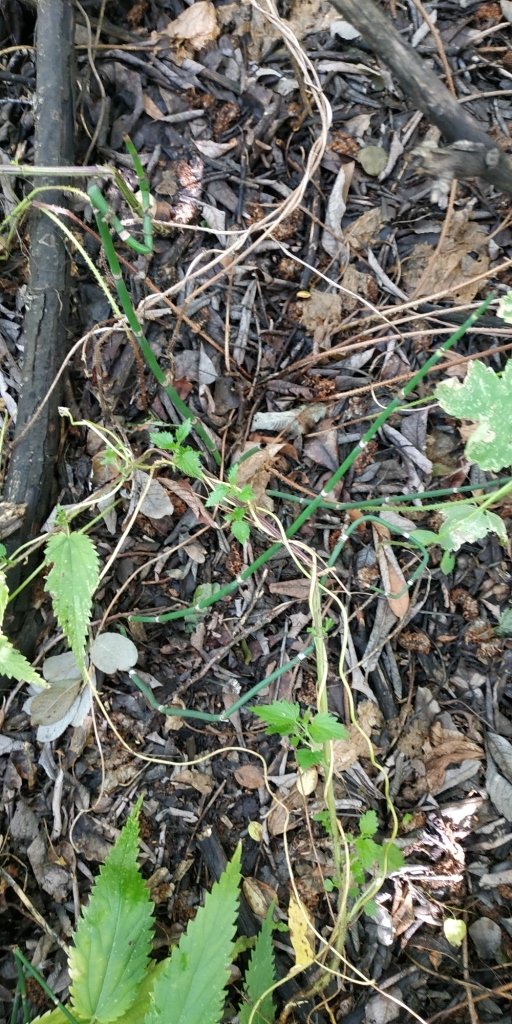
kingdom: Plantae
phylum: Tracheophyta
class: Polypodiopsida
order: Equisetales
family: Equisetaceae
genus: Equisetum
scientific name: Equisetum hyemale
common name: Rough horsetail
